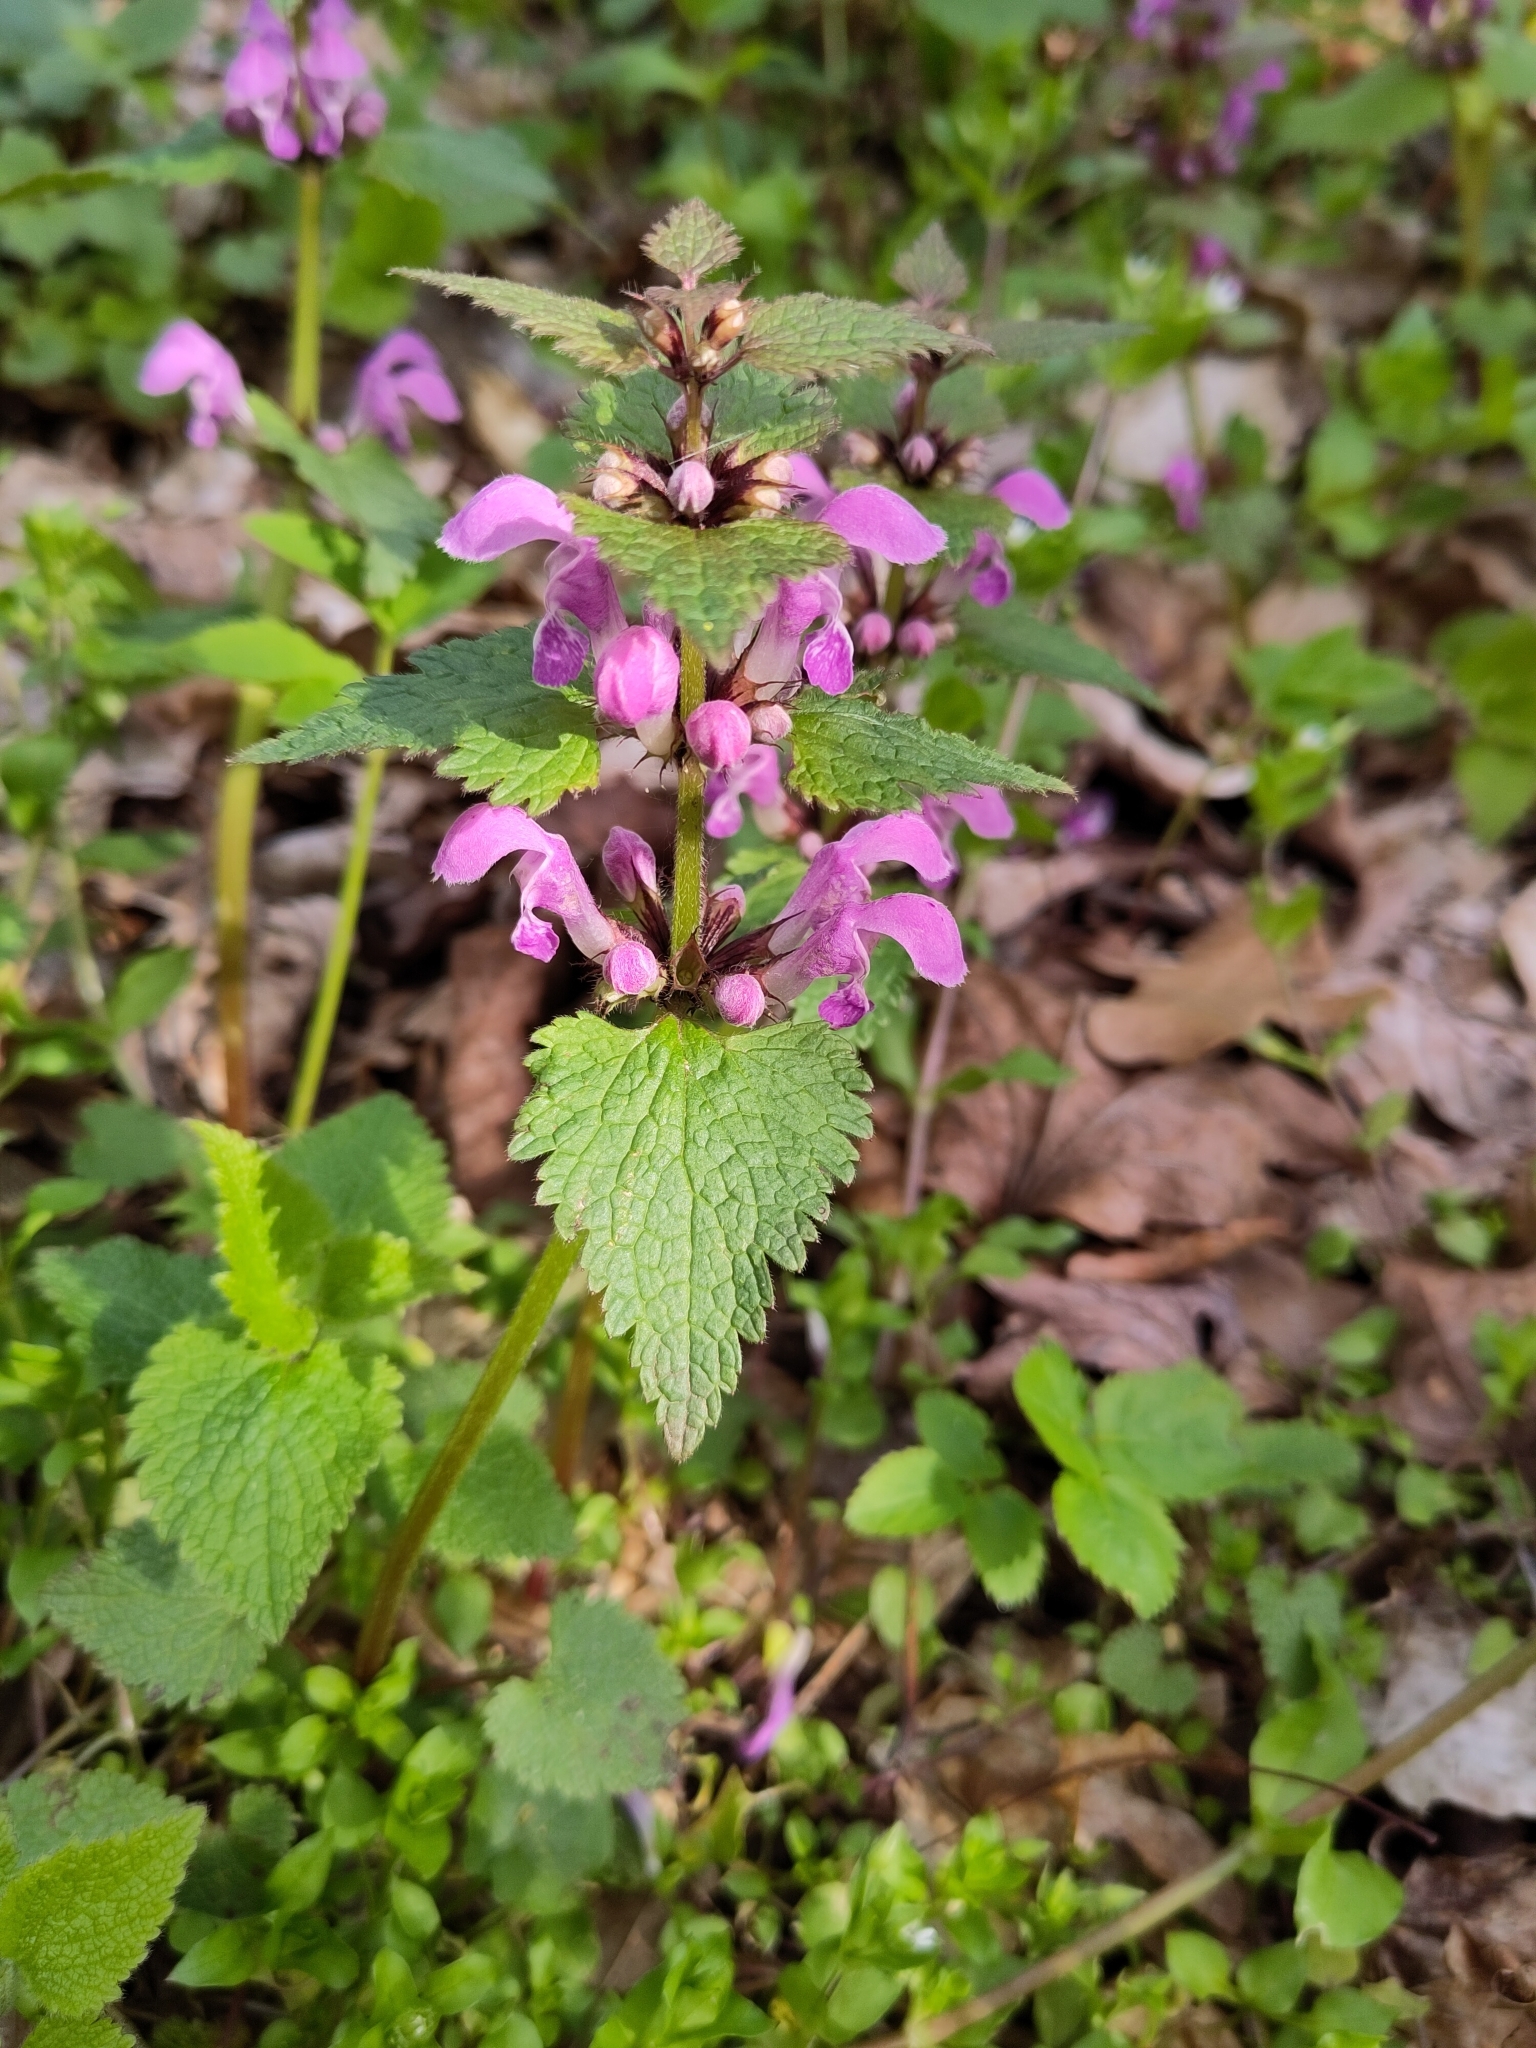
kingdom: Plantae
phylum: Tracheophyta
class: Magnoliopsida
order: Lamiales
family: Lamiaceae
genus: Lamium
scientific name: Lamium maculatum
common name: Spotted dead-nettle
